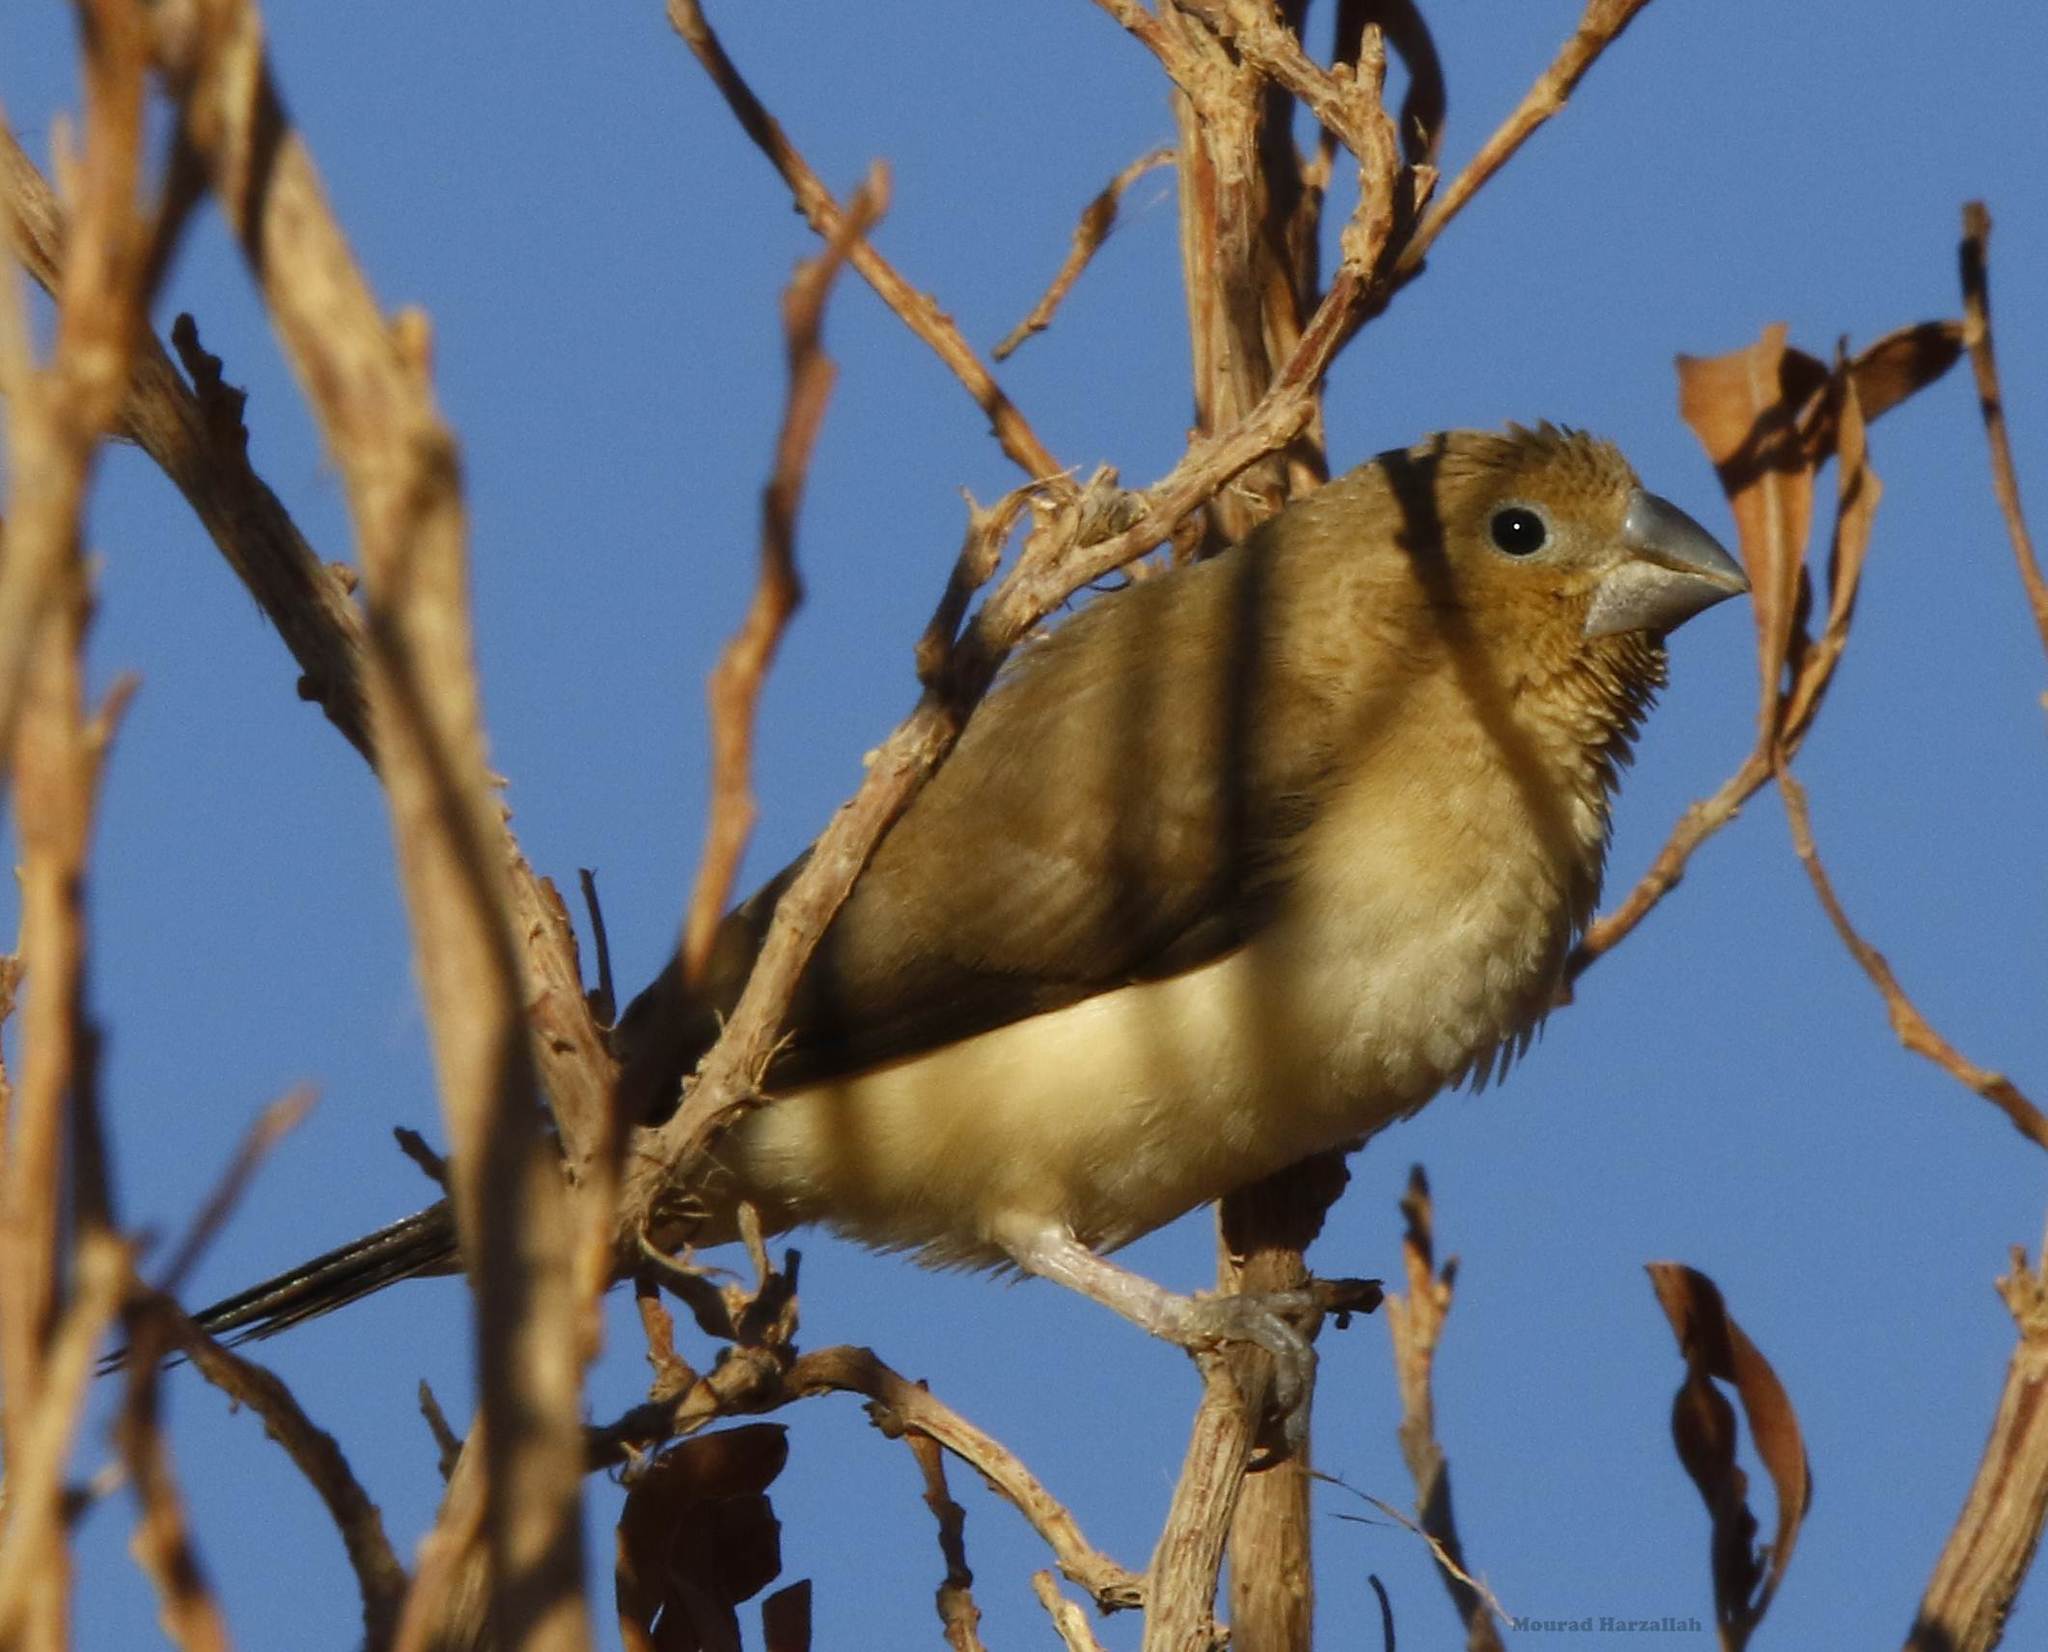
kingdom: Animalia
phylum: Chordata
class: Aves
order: Passeriformes
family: Estrildidae
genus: Euodice
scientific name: Euodice cantans
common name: African silverbill
